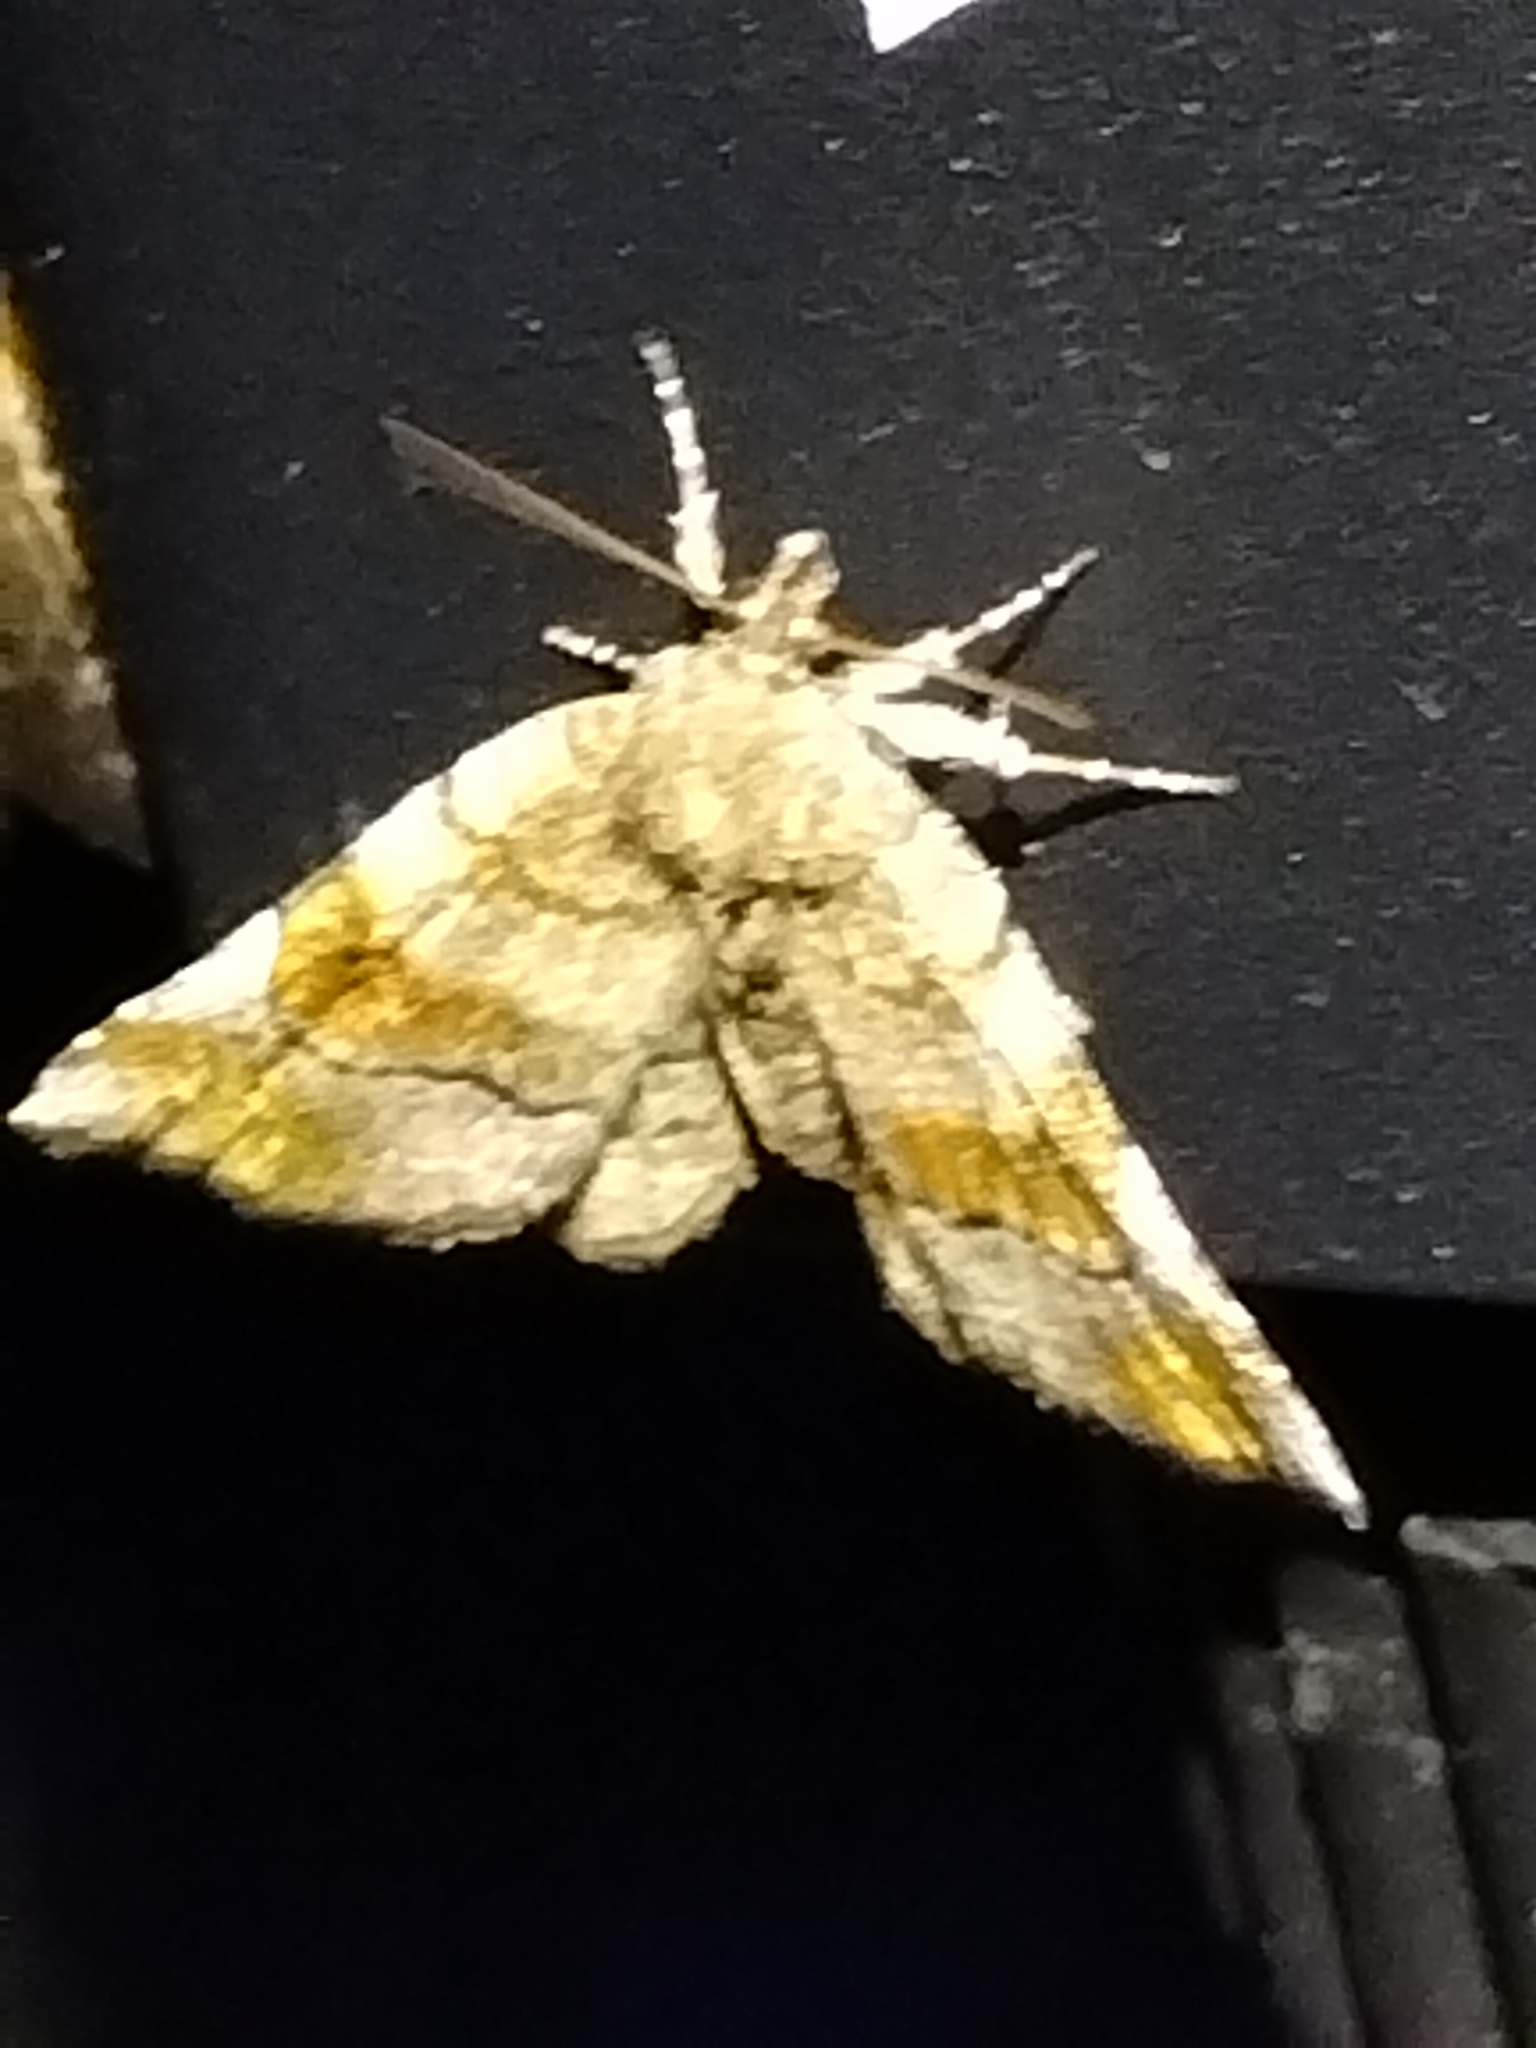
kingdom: Animalia
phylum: Arthropoda
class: Insecta
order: Lepidoptera
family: Erebidae
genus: Pangrapta
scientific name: Pangrapta decoralis
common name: Decorated owlet
